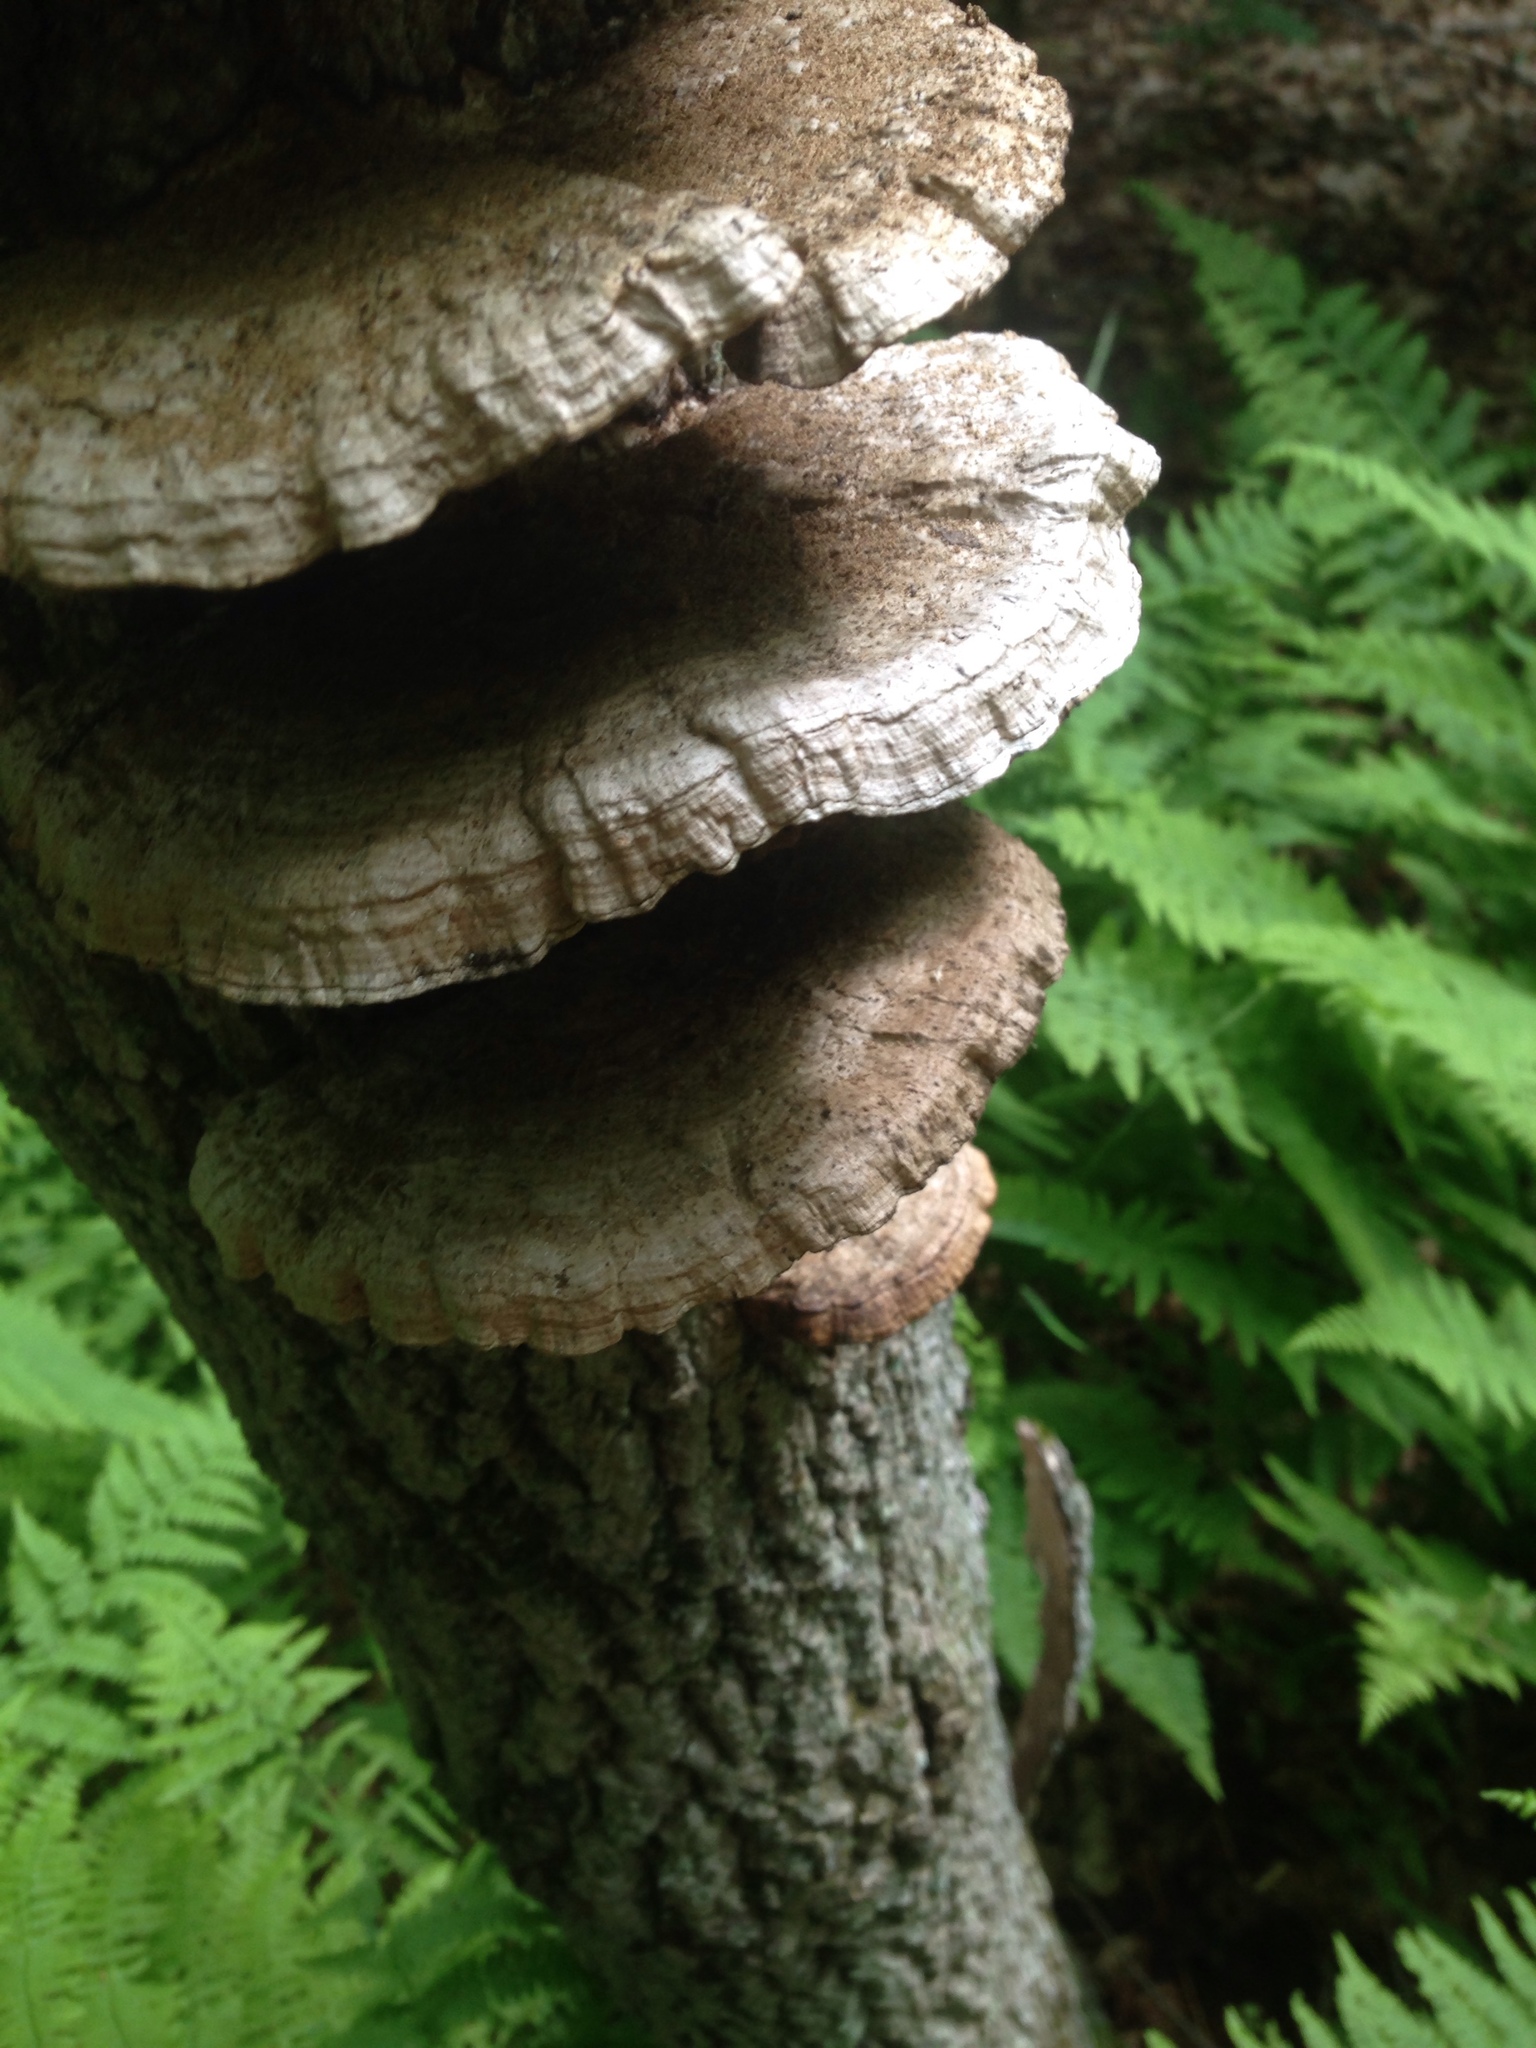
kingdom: Fungi
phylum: Basidiomycota
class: Agaricomycetes
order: Polyporales
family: Polyporaceae
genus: Daedaleopsis
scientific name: Daedaleopsis confragosa
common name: Blushing bracket
